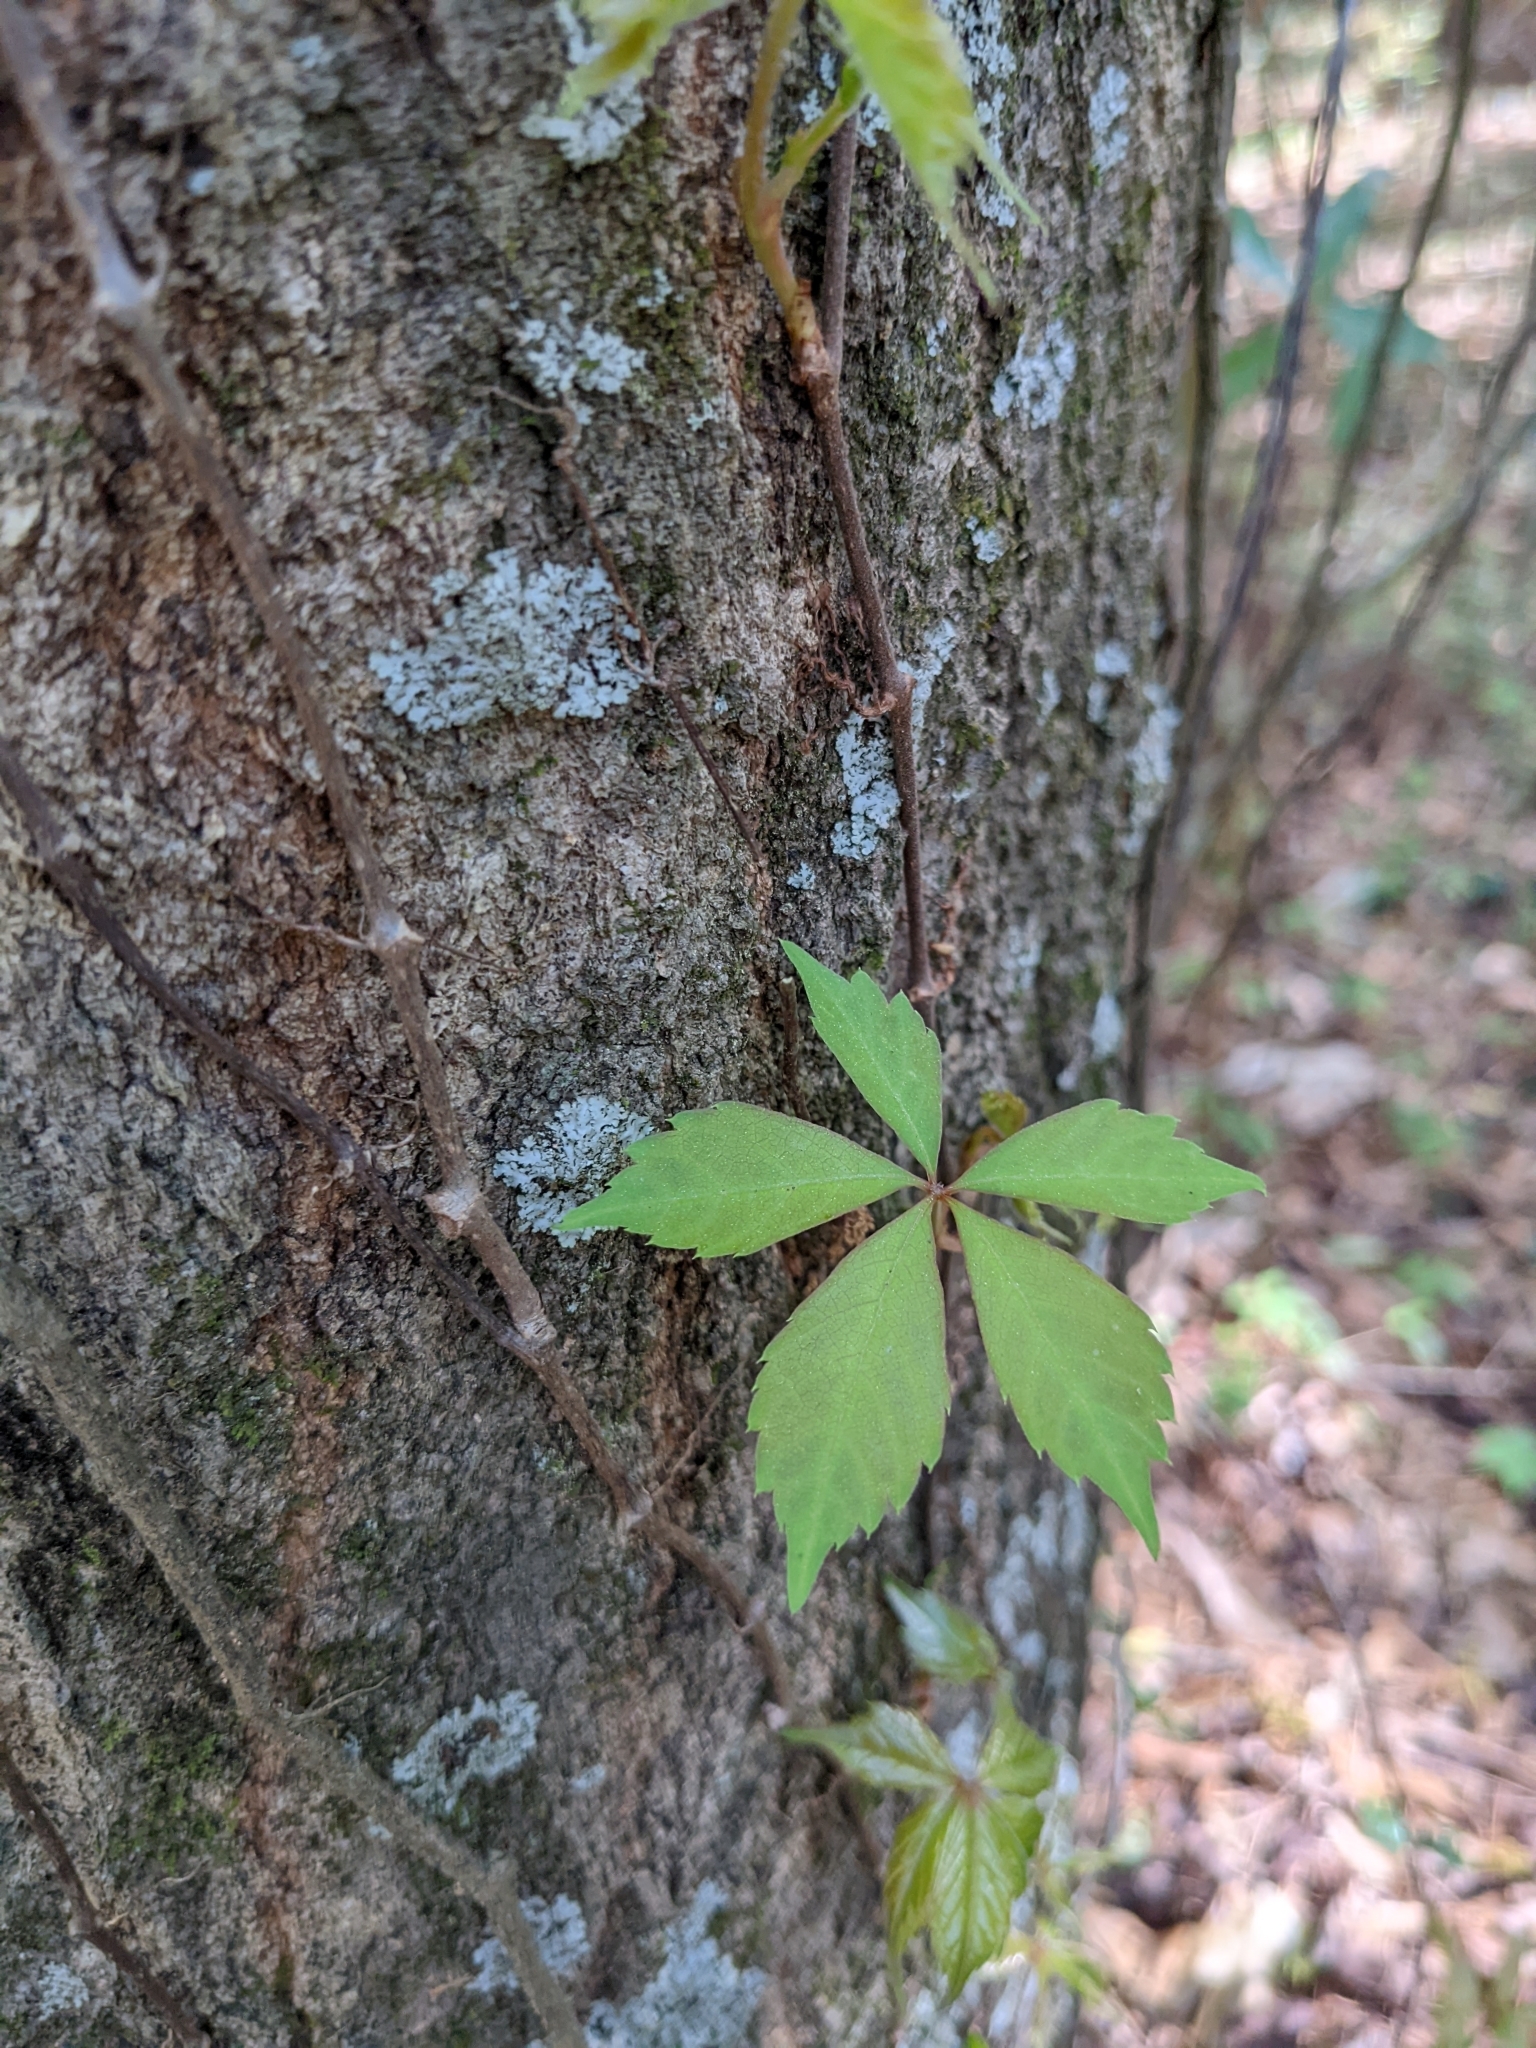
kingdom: Plantae
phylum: Tracheophyta
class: Magnoliopsida
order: Vitales
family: Vitaceae
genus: Parthenocissus
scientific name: Parthenocissus quinquefolia
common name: Virginia-creeper
